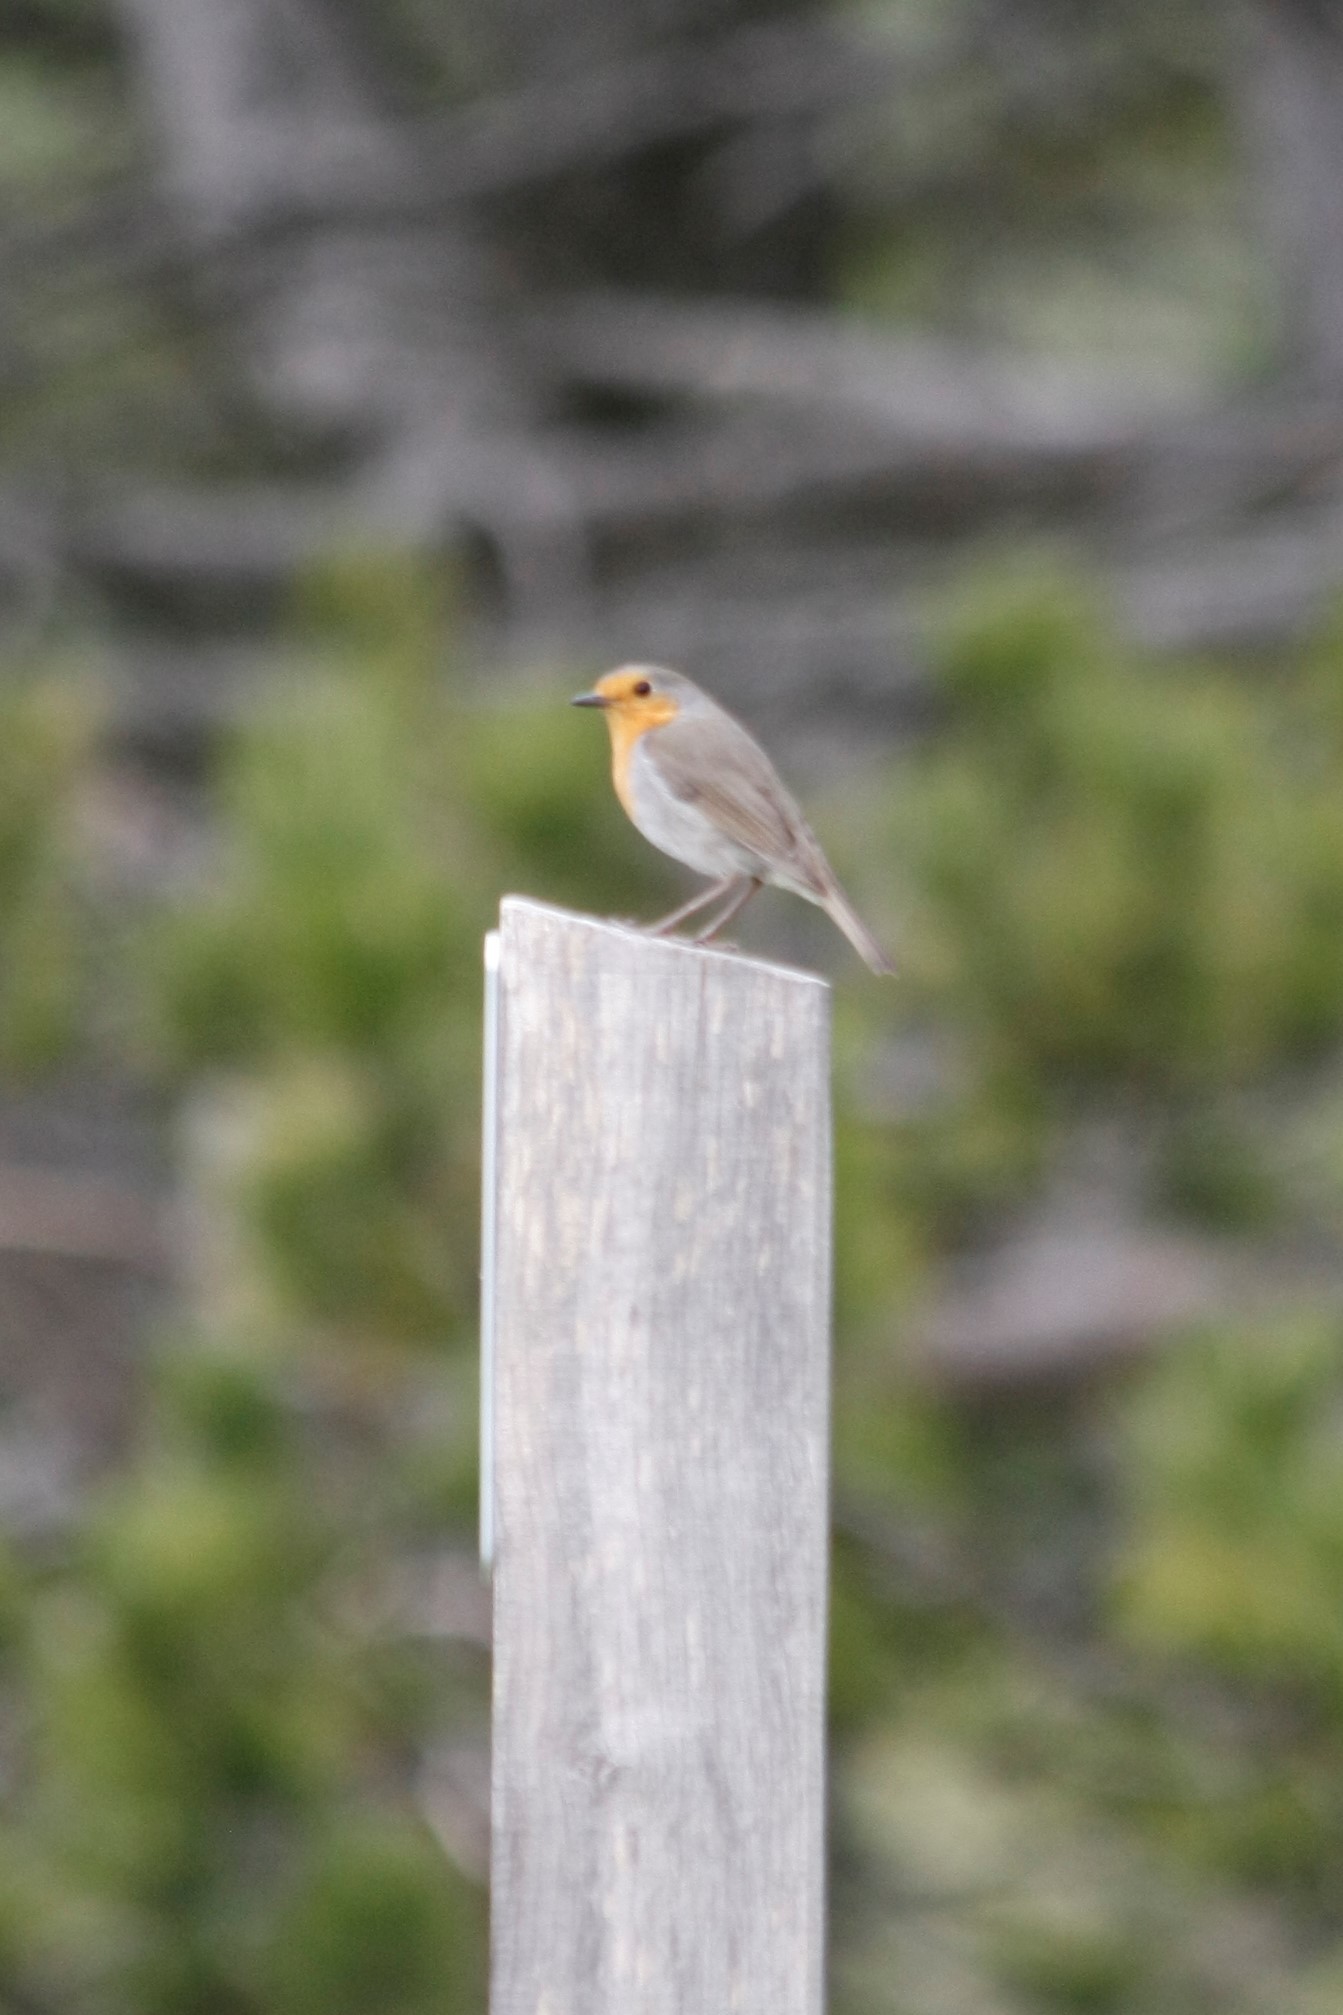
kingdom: Animalia
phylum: Chordata
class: Aves
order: Passeriformes
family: Muscicapidae
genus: Erithacus
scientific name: Erithacus rubecula
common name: European robin
